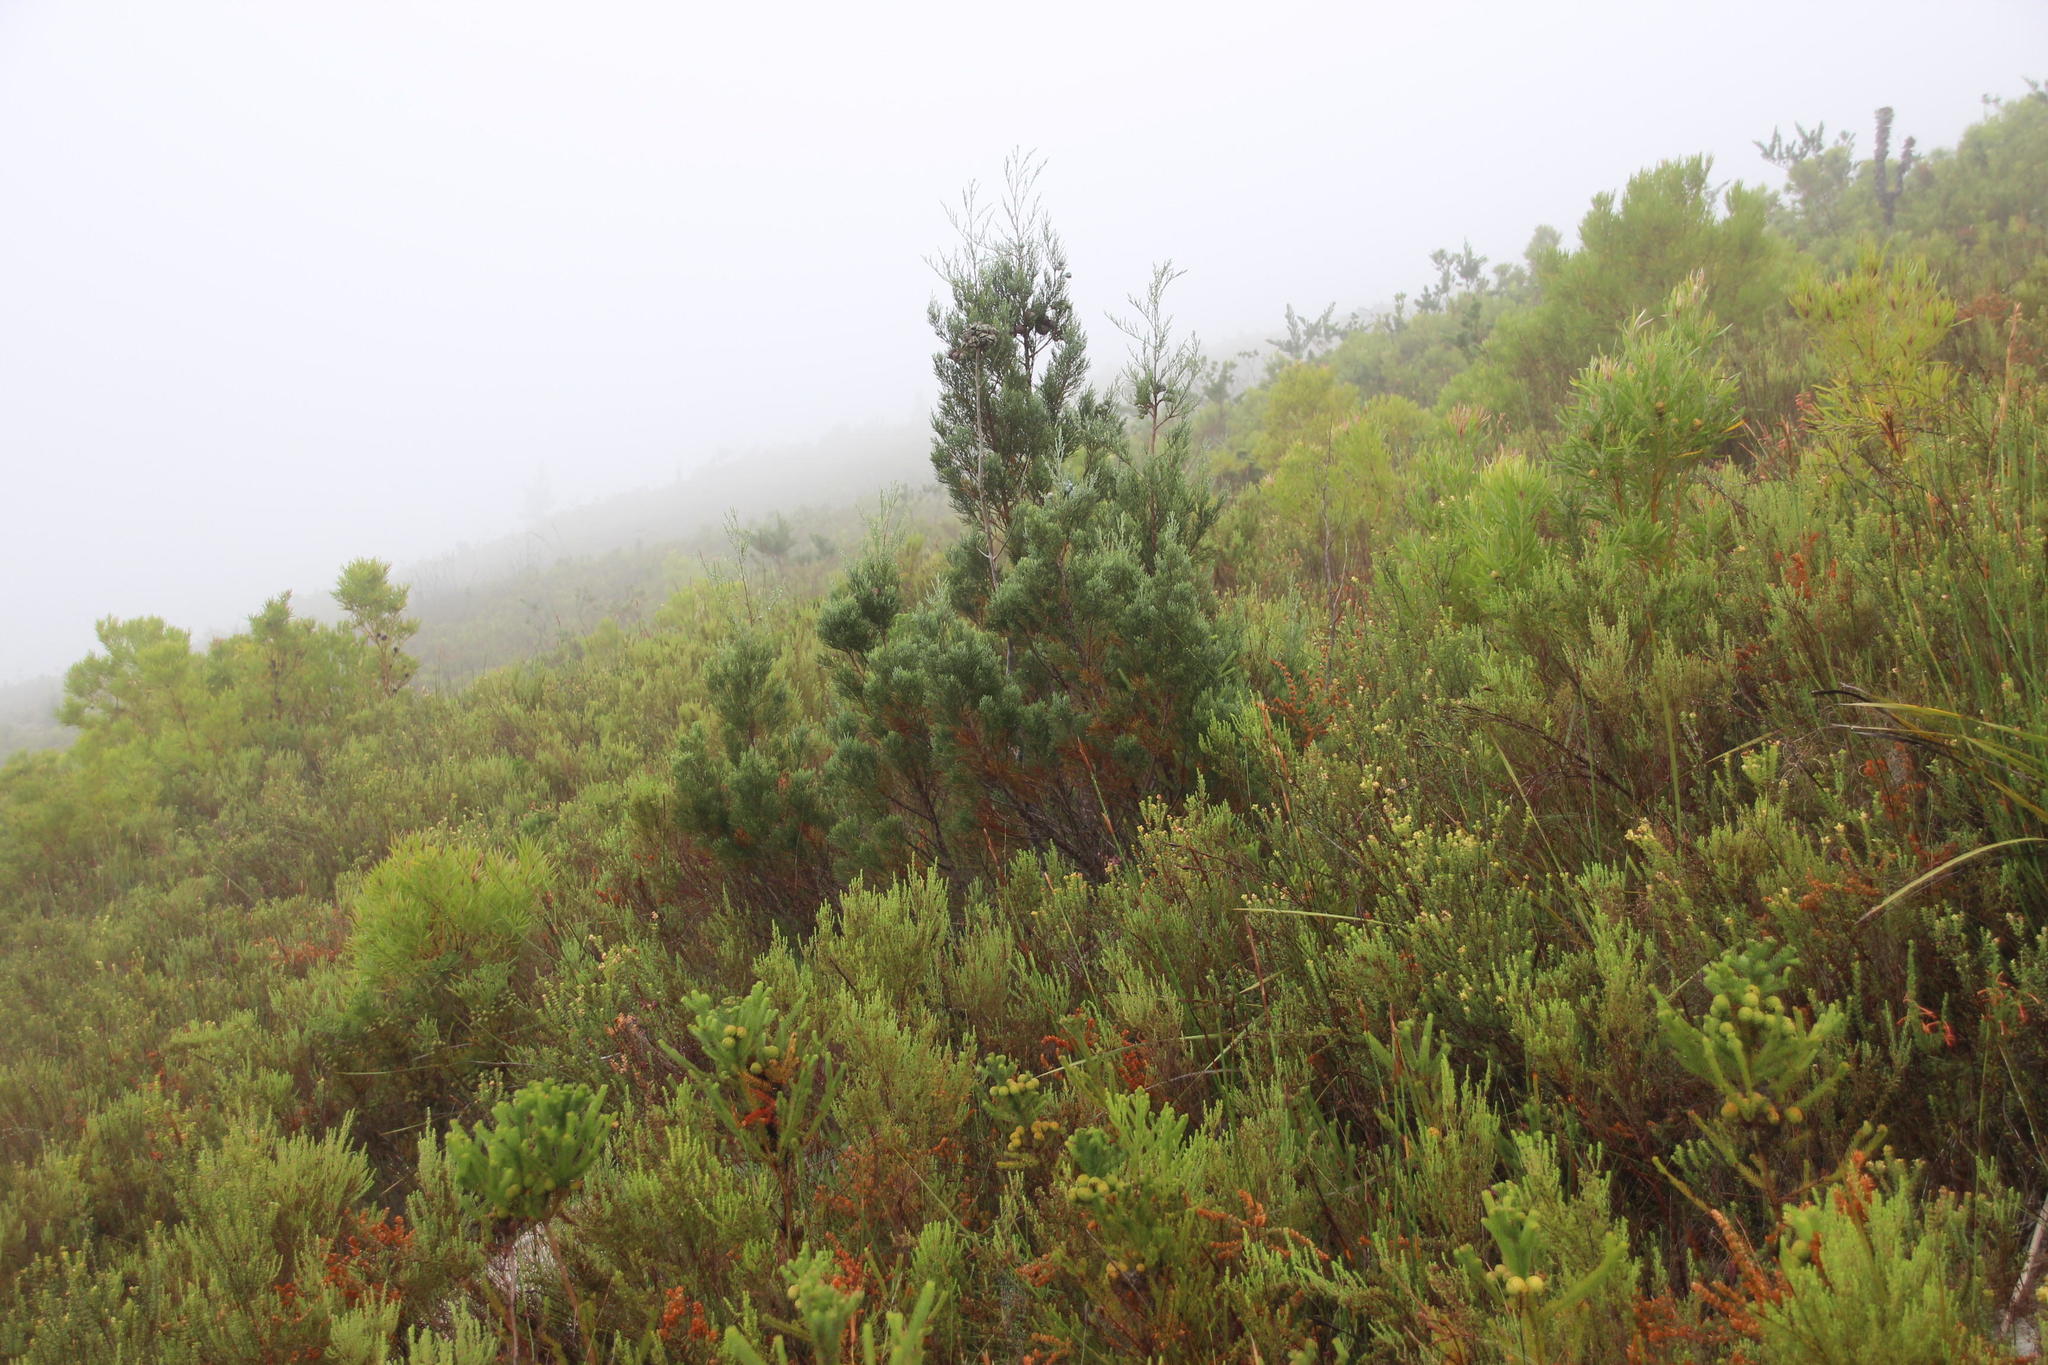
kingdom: Plantae
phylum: Tracheophyta
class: Pinopsida
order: Pinales
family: Cupressaceae
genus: Widdringtonia
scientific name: Widdringtonia nodiflora
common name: Cape cypress
